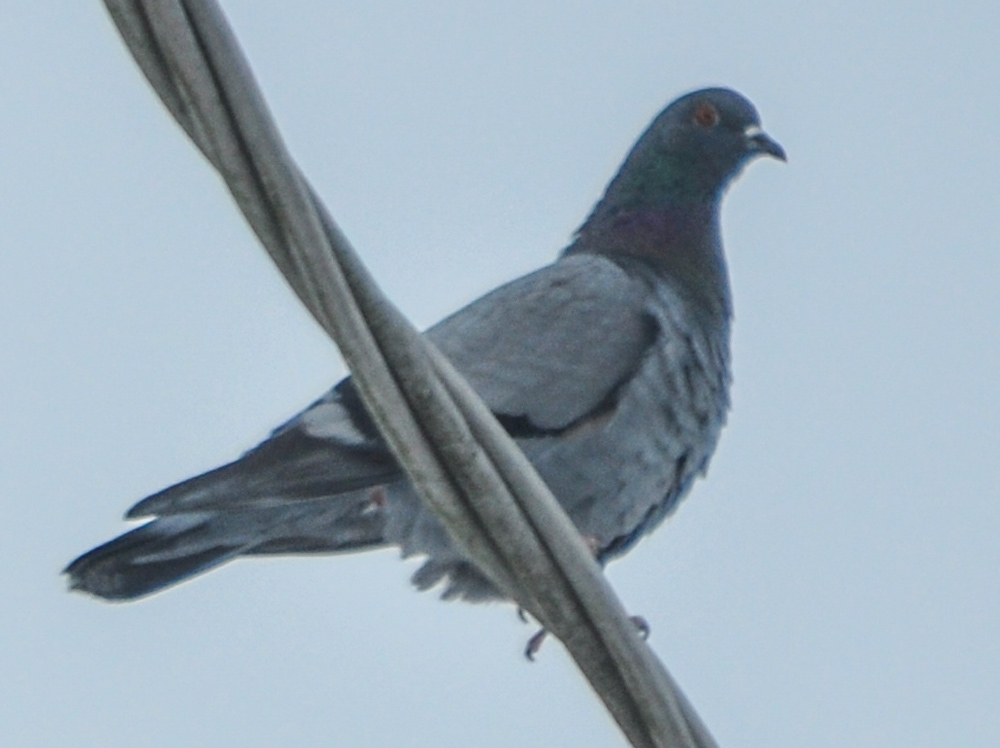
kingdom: Animalia
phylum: Chordata
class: Aves
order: Columbiformes
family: Columbidae
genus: Columba
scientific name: Columba livia
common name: Rock pigeon
